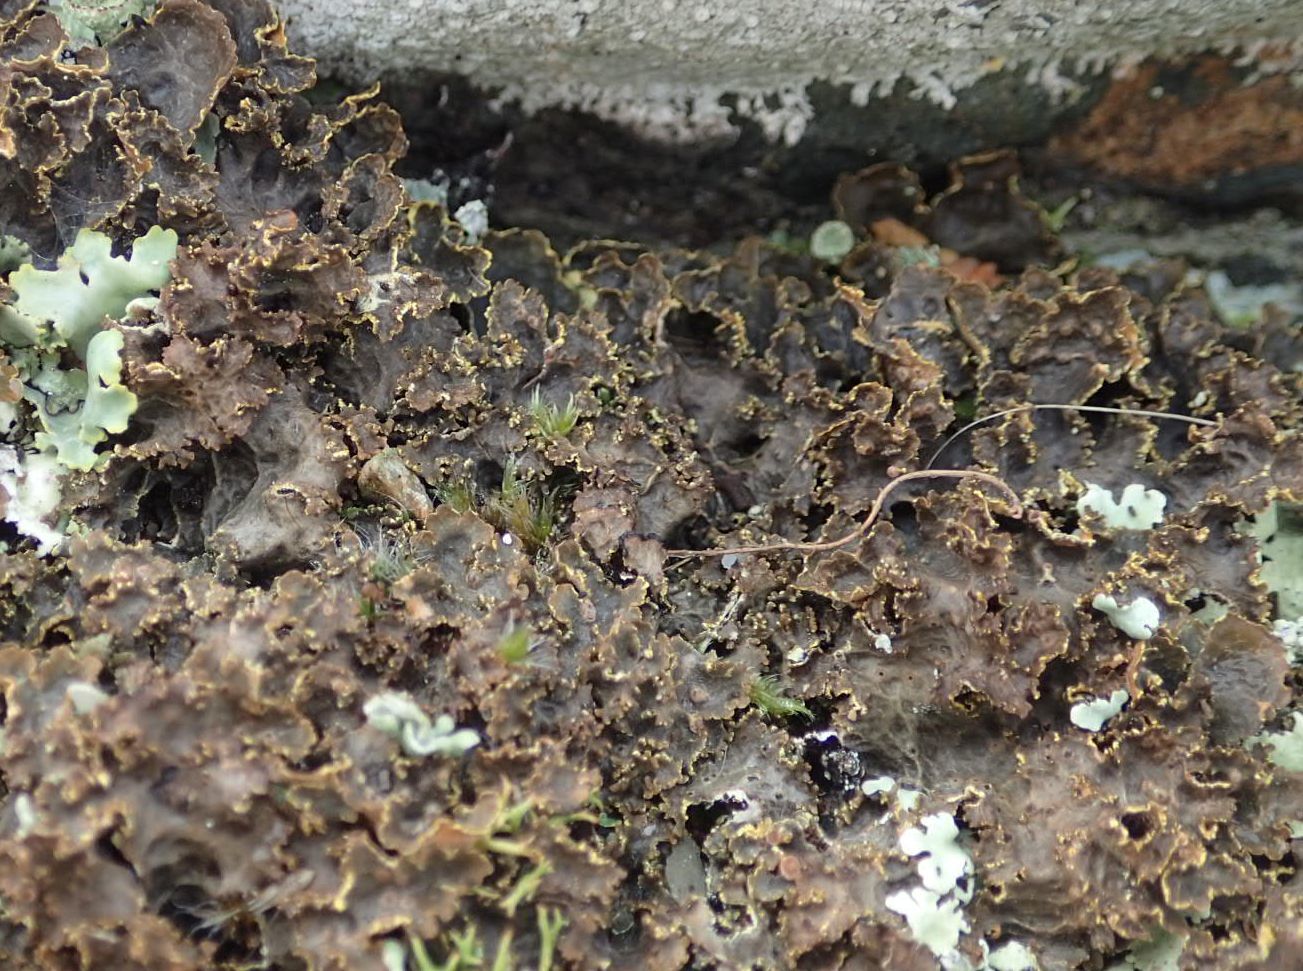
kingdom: Fungi
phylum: Ascomycota
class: Lecanoromycetes
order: Peltigerales
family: Lobariaceae
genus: Pseudocyphellaria
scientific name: Pseudocyphellaria crocata
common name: Golden specklebelly
